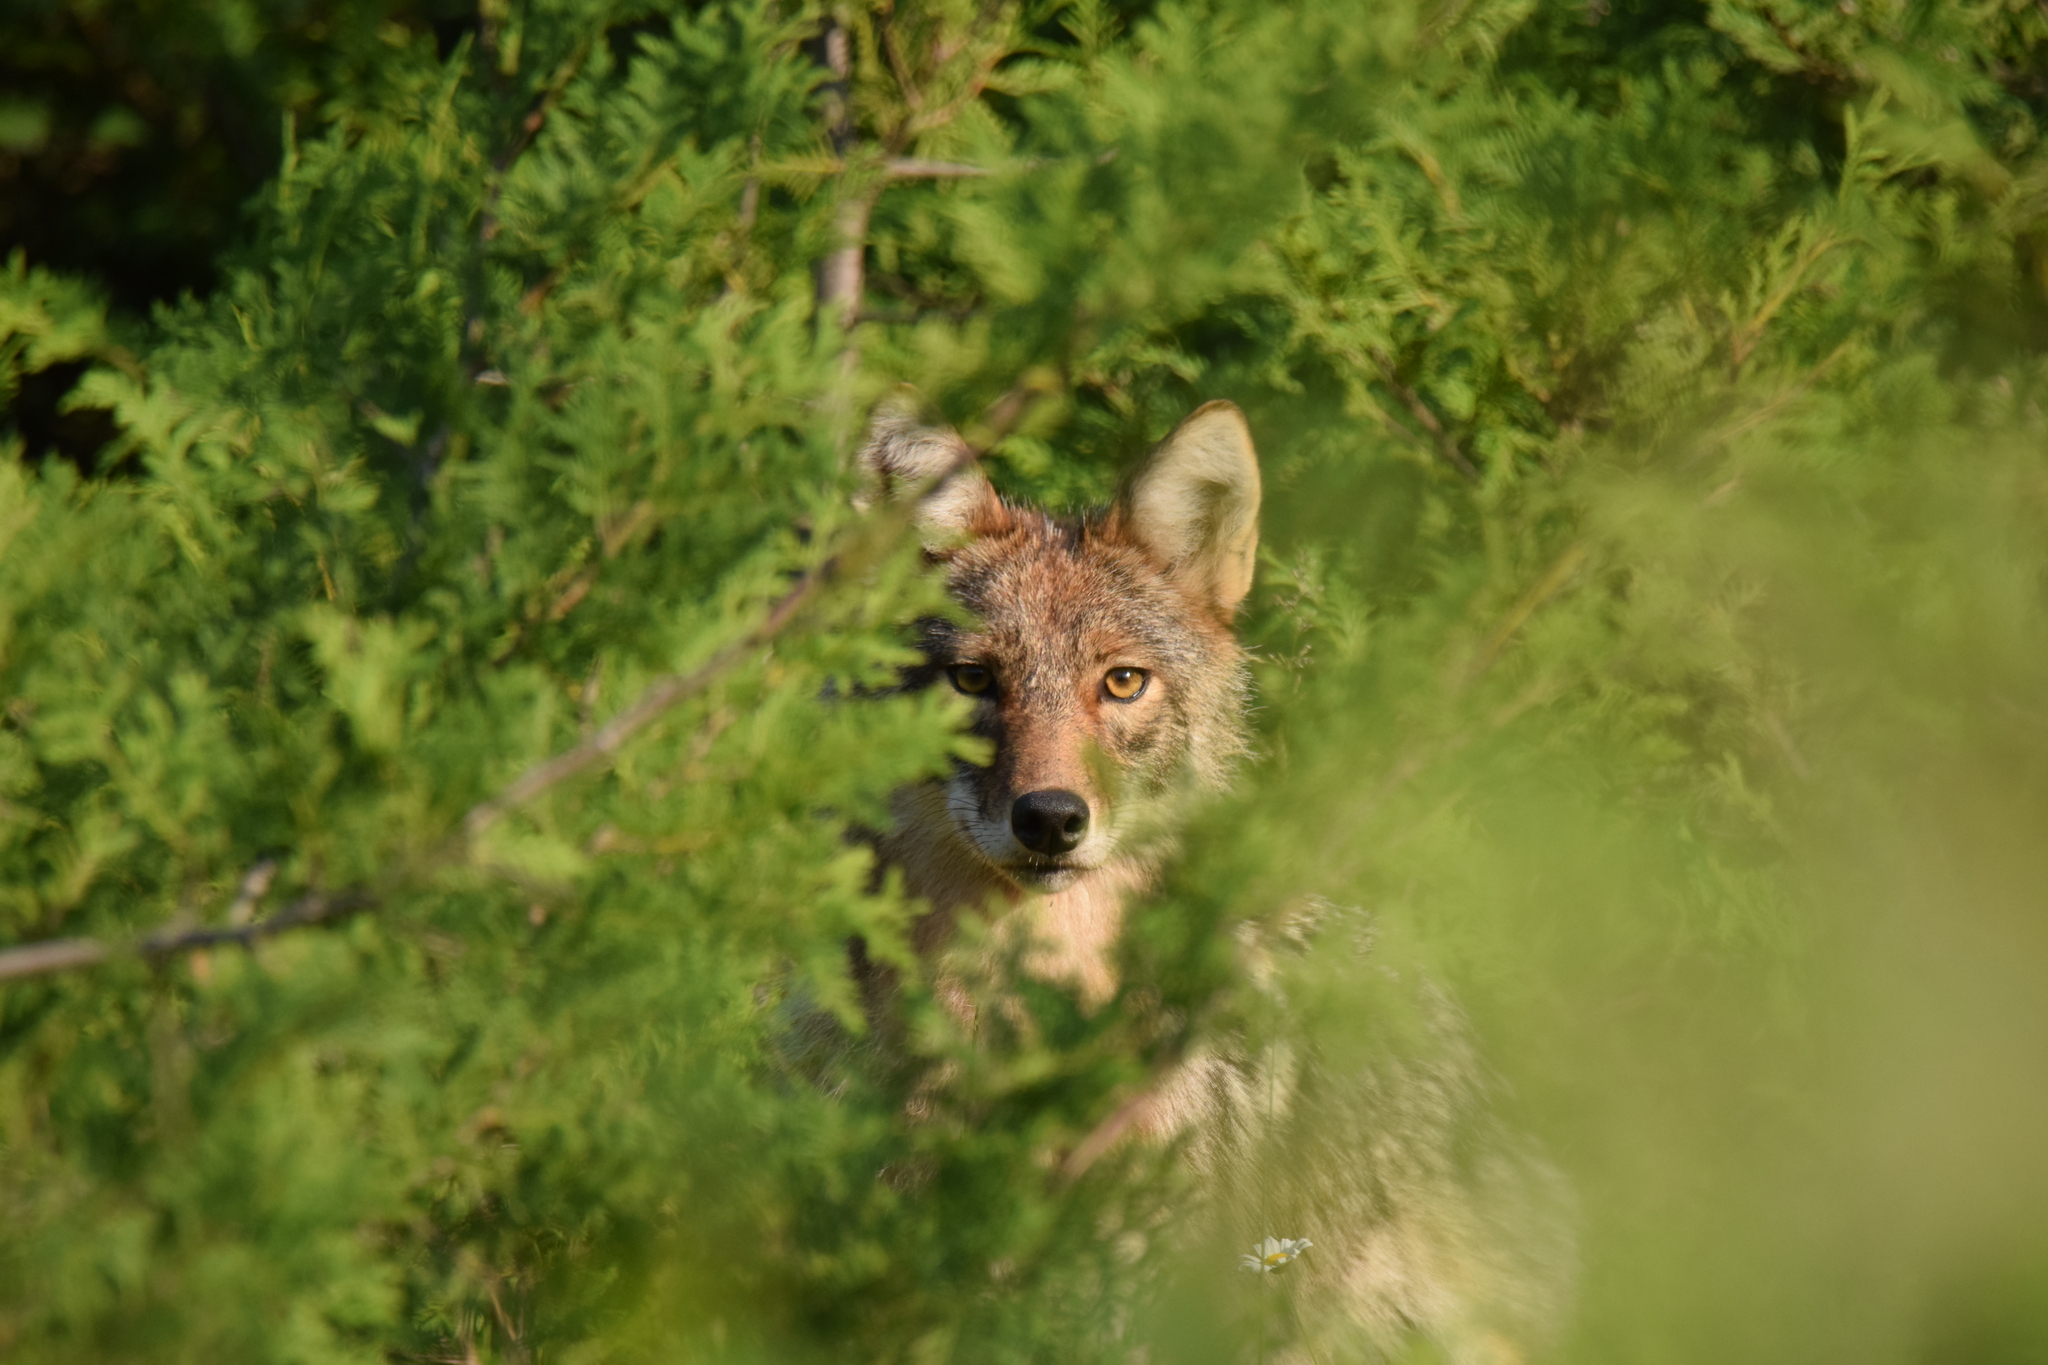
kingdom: Animalia
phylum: Chordata
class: Mammalia
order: Carnivora
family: Canidae
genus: Canis
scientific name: Canis latrans
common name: Coyote
